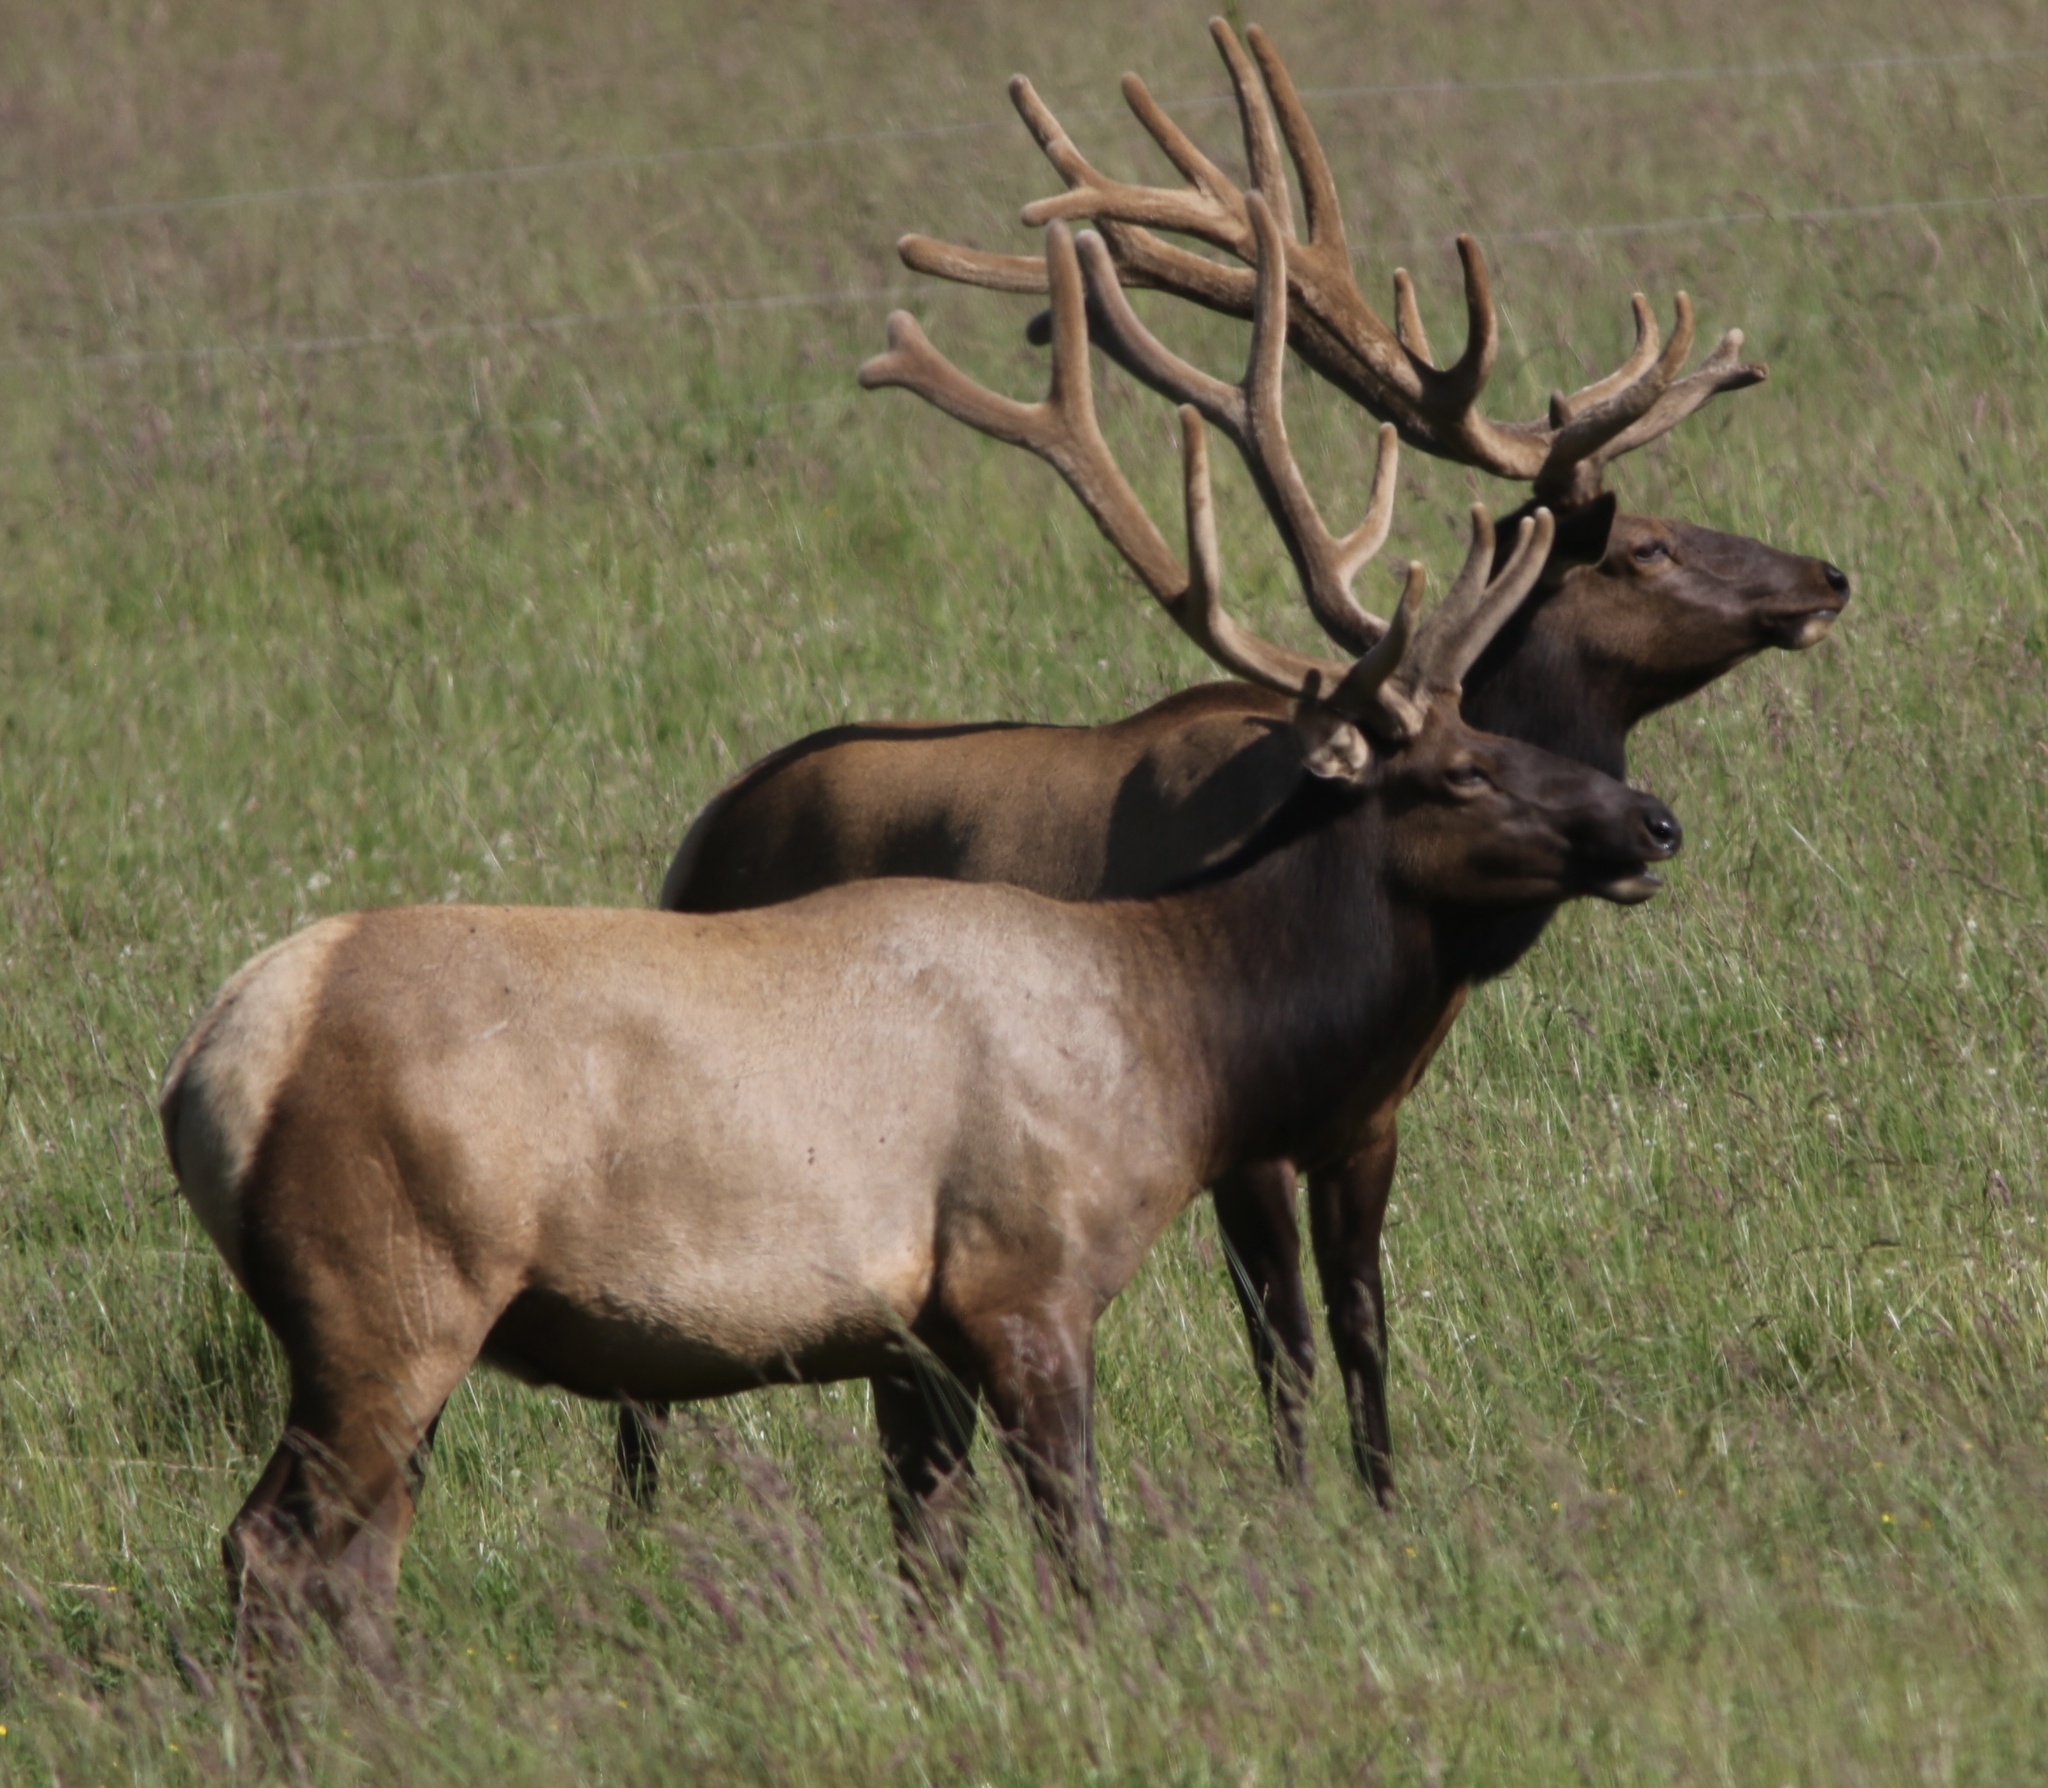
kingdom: Animalia
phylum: Chordata
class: Mammalia
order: Artiodactyla
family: Cervidae
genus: Cervus
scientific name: Cervus elaphus
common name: Red deer
